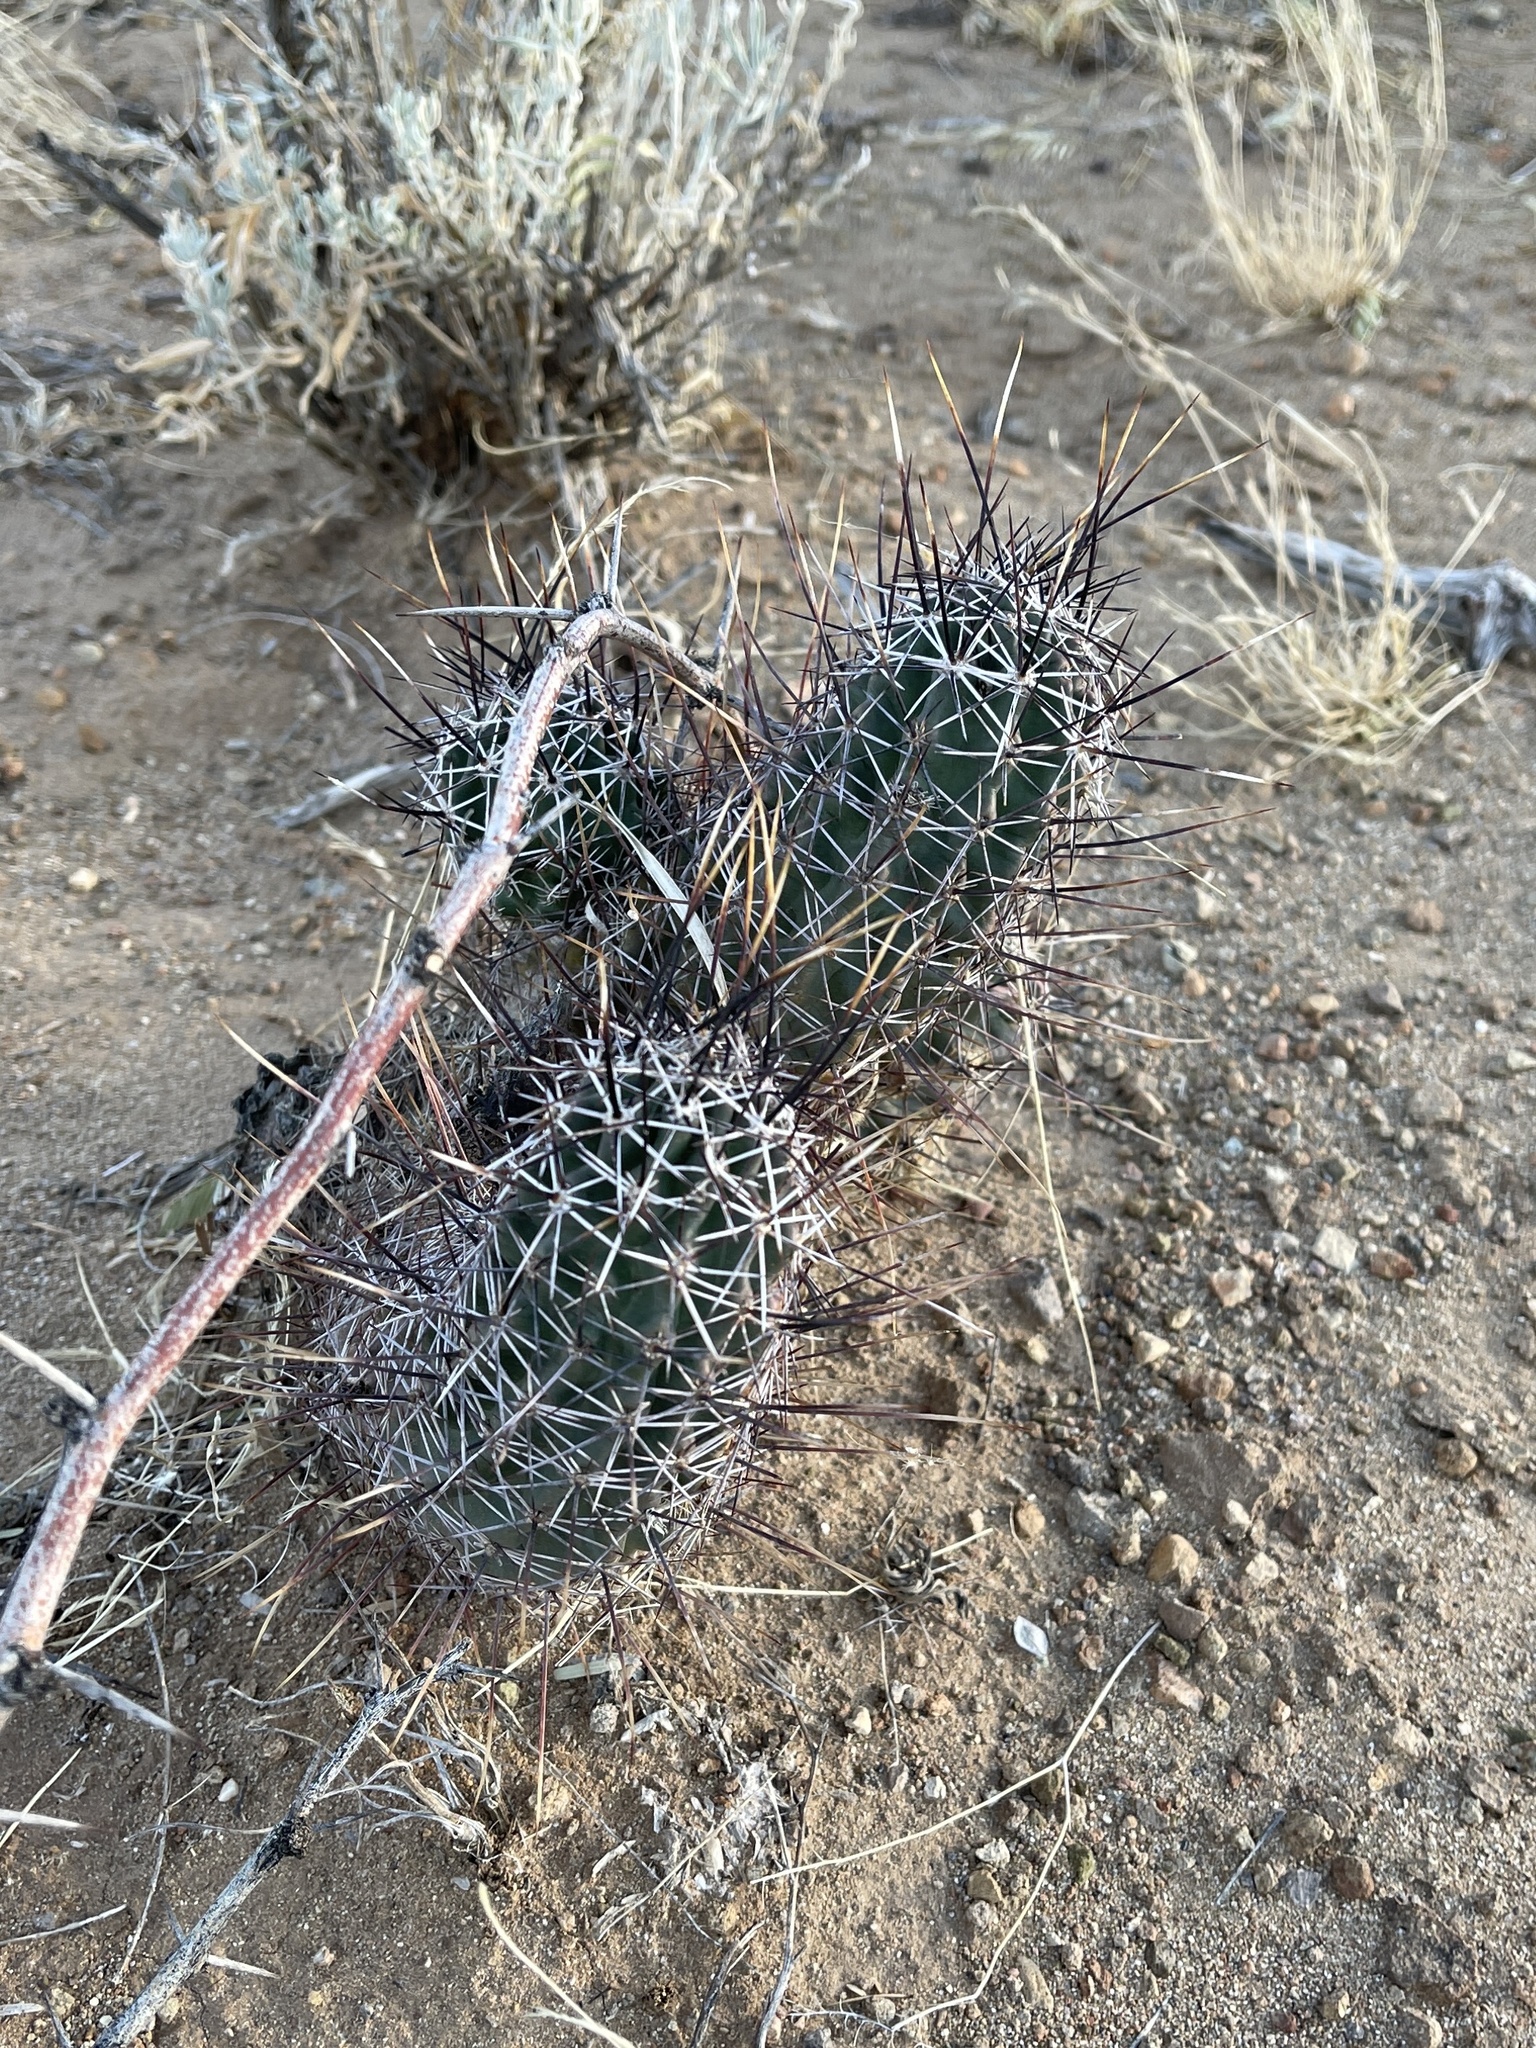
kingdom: Plantae
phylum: Tracheophyta
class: Magnoliopsida
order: Caryophyllales
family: Cactaceae
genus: Echinocereus
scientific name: Echinocereus fendleri
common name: Fendler's hedgehog cactus
